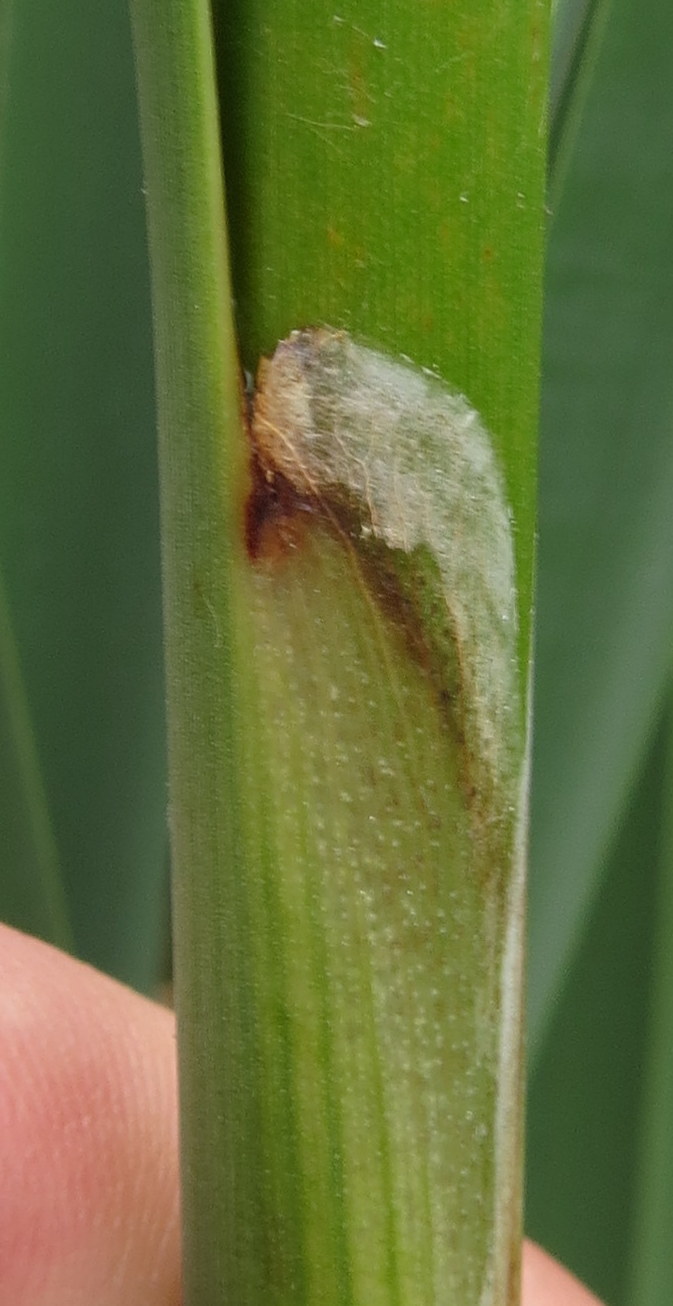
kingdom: Plantae
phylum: Tracheophyta
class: Liliopsida
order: Poales
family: Typhaceae
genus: Typha
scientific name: Typha latifolia
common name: Broadleaf cattail
